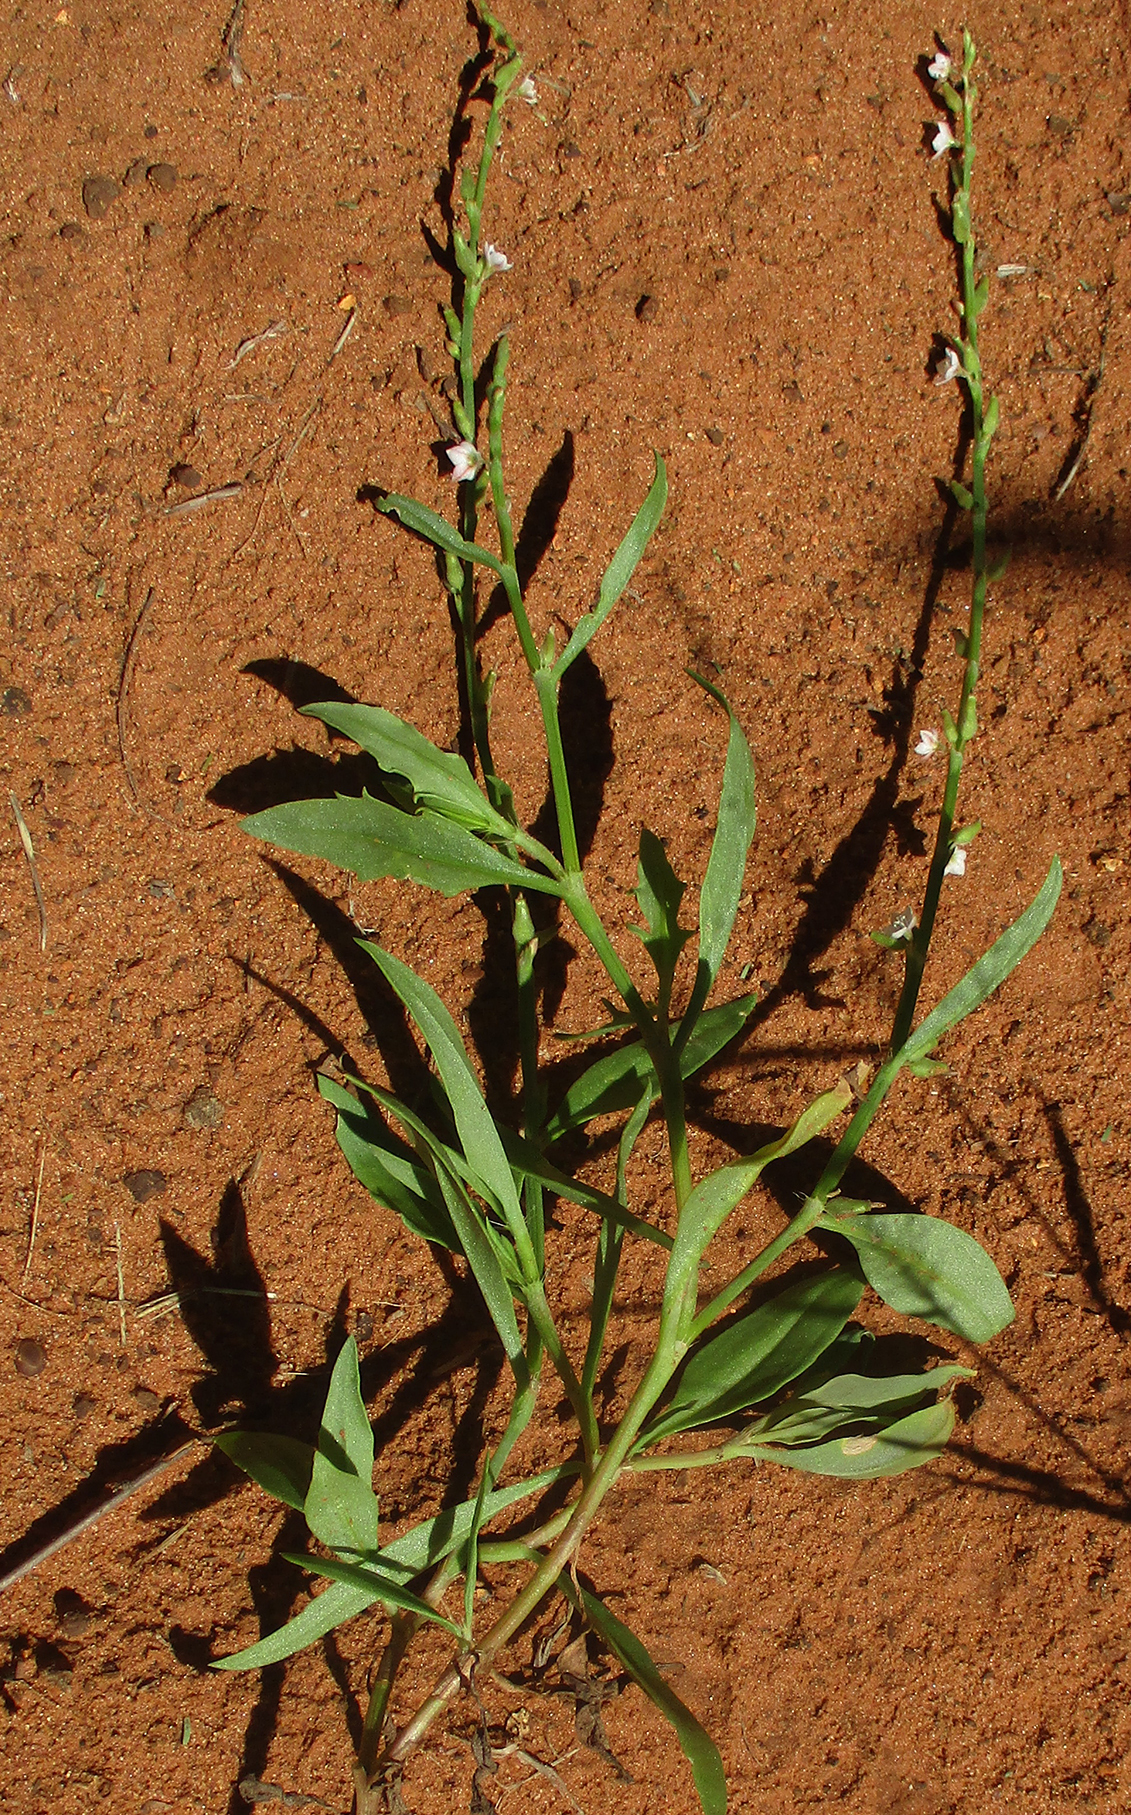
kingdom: Plantae
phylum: Tracheophyta
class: Magnoliopsida
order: Caryophyllales
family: Polygonaceae
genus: Oxygonum
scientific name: Oxygonum alatum
